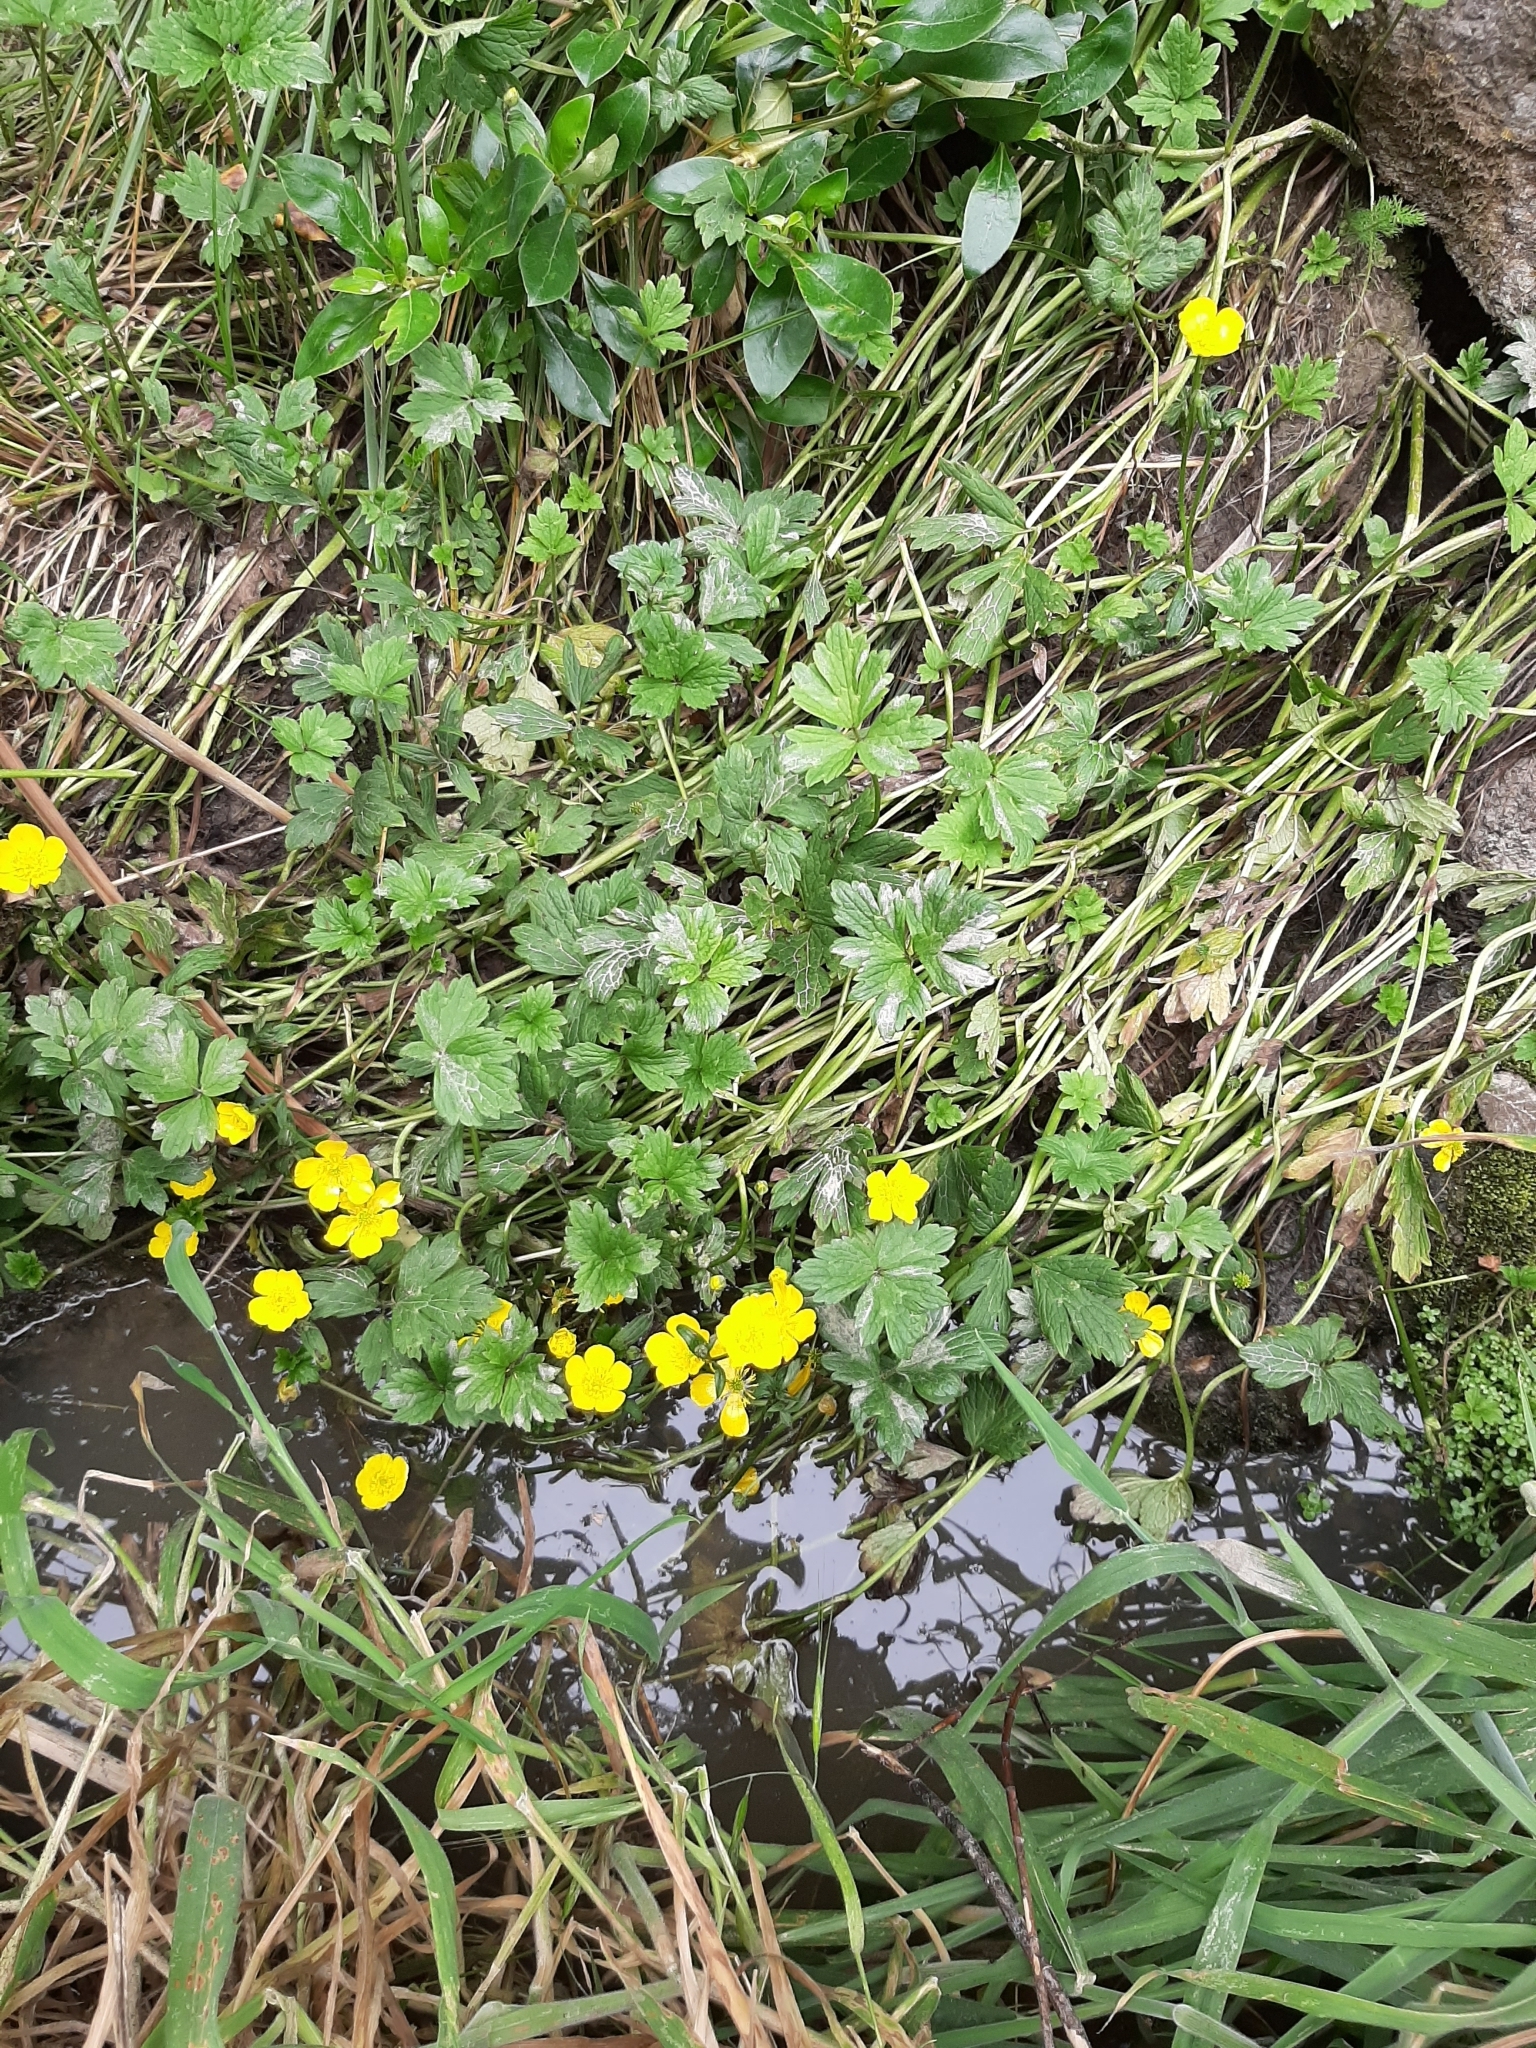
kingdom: Plantae
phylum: Tracheophyta
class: Magnoliopsida
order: Ranunculales
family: Ranunculaceae
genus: Ranunculus
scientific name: Ranunculus repens
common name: Creeping buttercup
